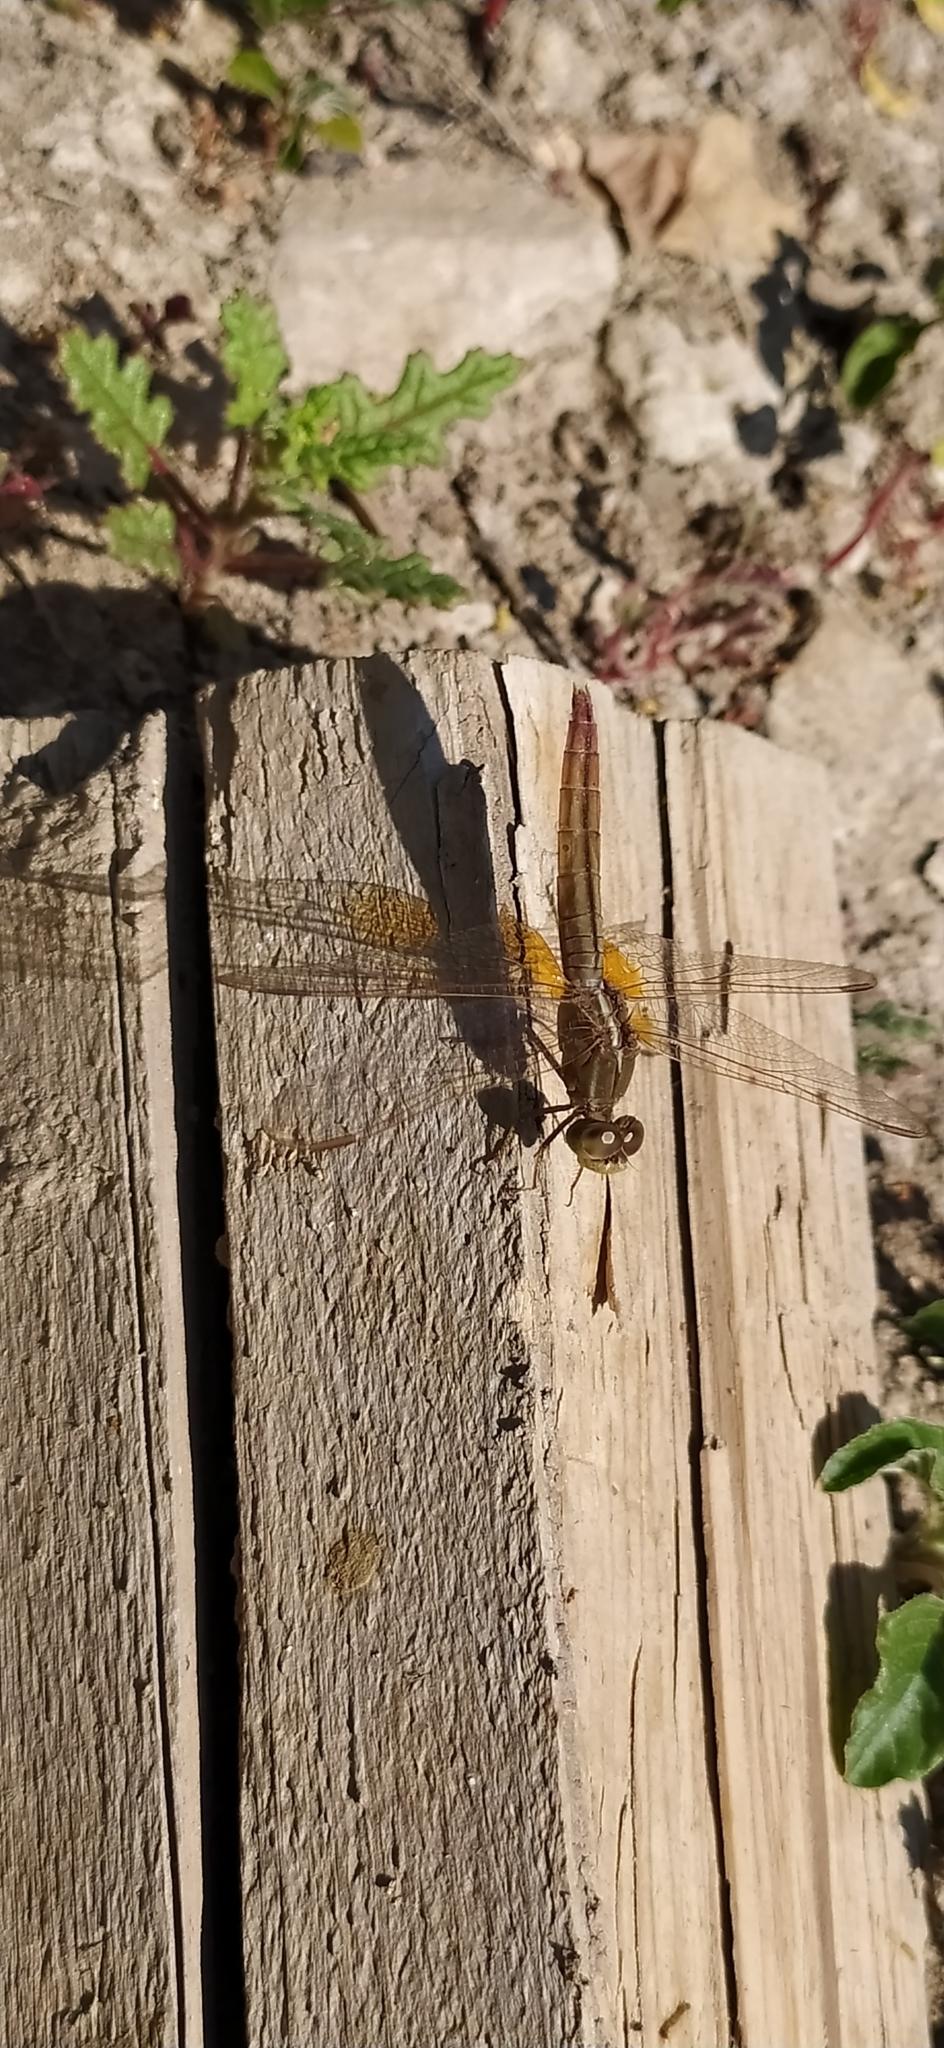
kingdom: Animalia
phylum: Arthropoda
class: Insecta
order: Odonata
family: Libellulidae
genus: Crocothemis
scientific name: Crocothemis servilia
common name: Scarlet skimmer
